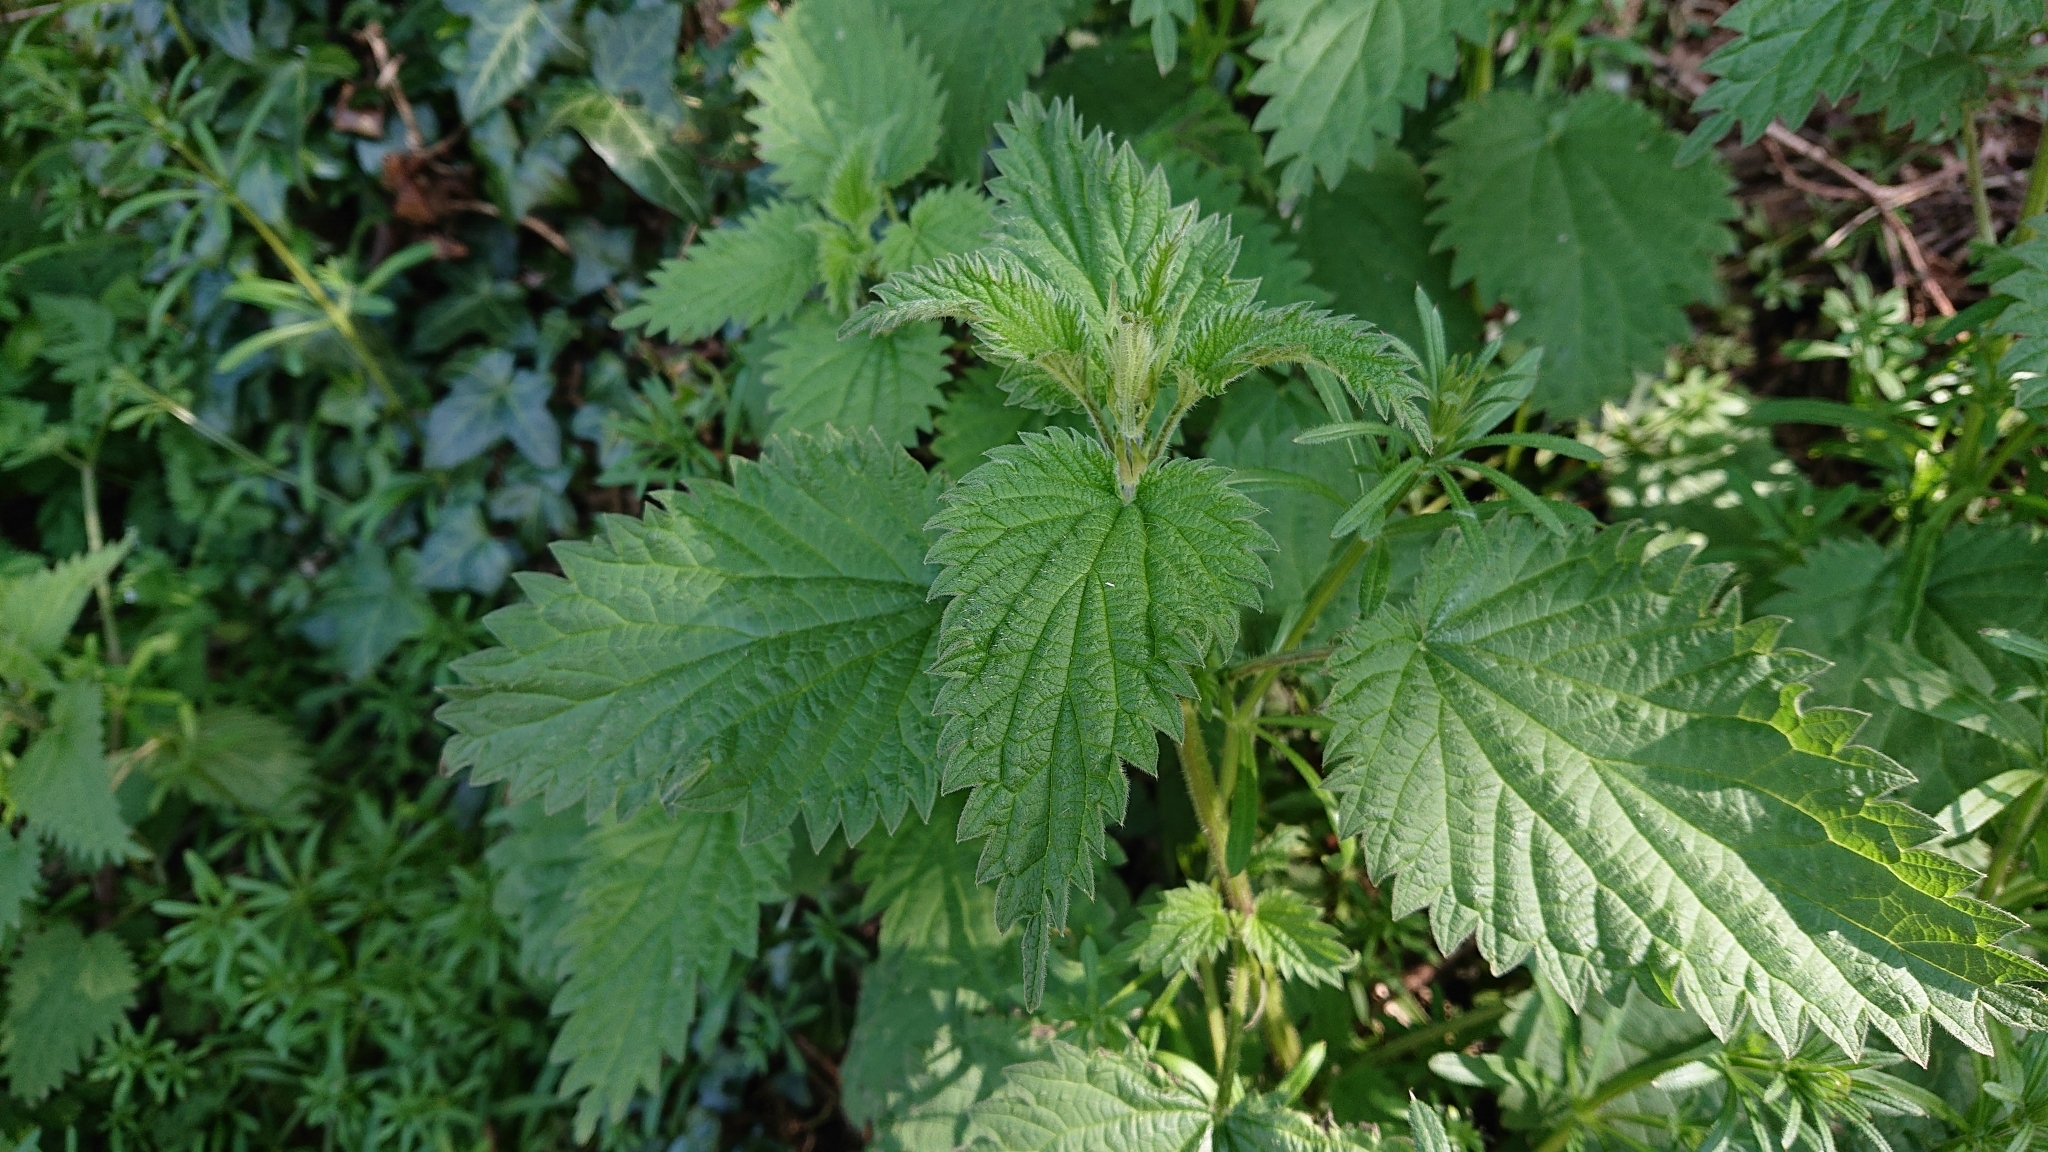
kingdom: Plantae
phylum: Tracheophyta
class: Magnoliopsida
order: Rosales
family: Urticaceae
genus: Urtica
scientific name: Urtica dioica
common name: Common nettle
